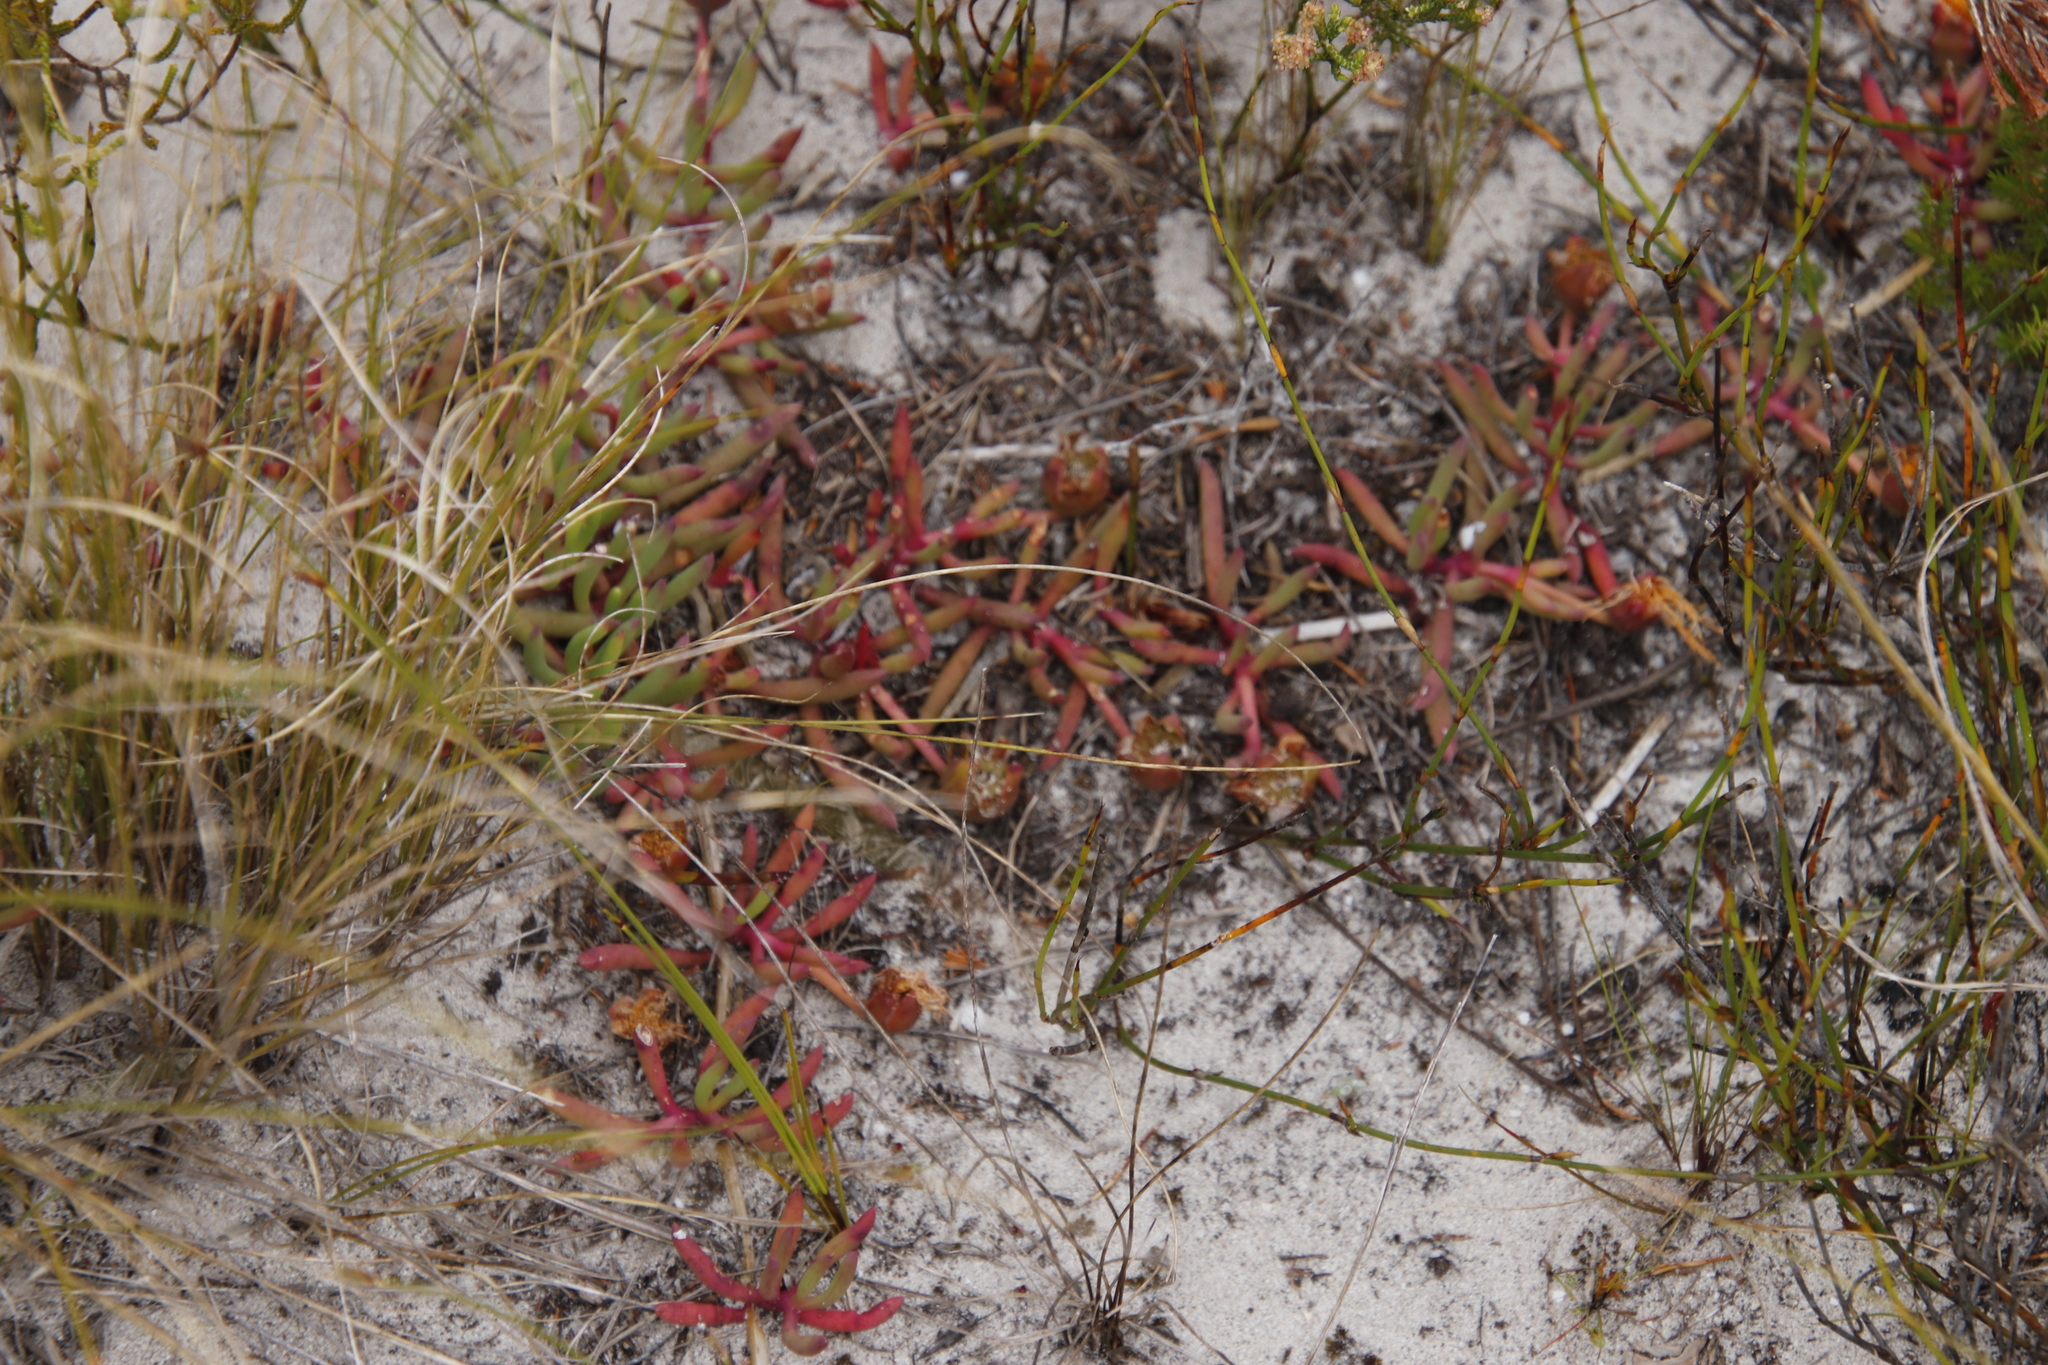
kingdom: Plantae
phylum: Tracheophyta
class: Magnoliopsida
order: Caryophyllales
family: Aizoaceae
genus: Jordaaniella
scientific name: Jordaaniella dubia
